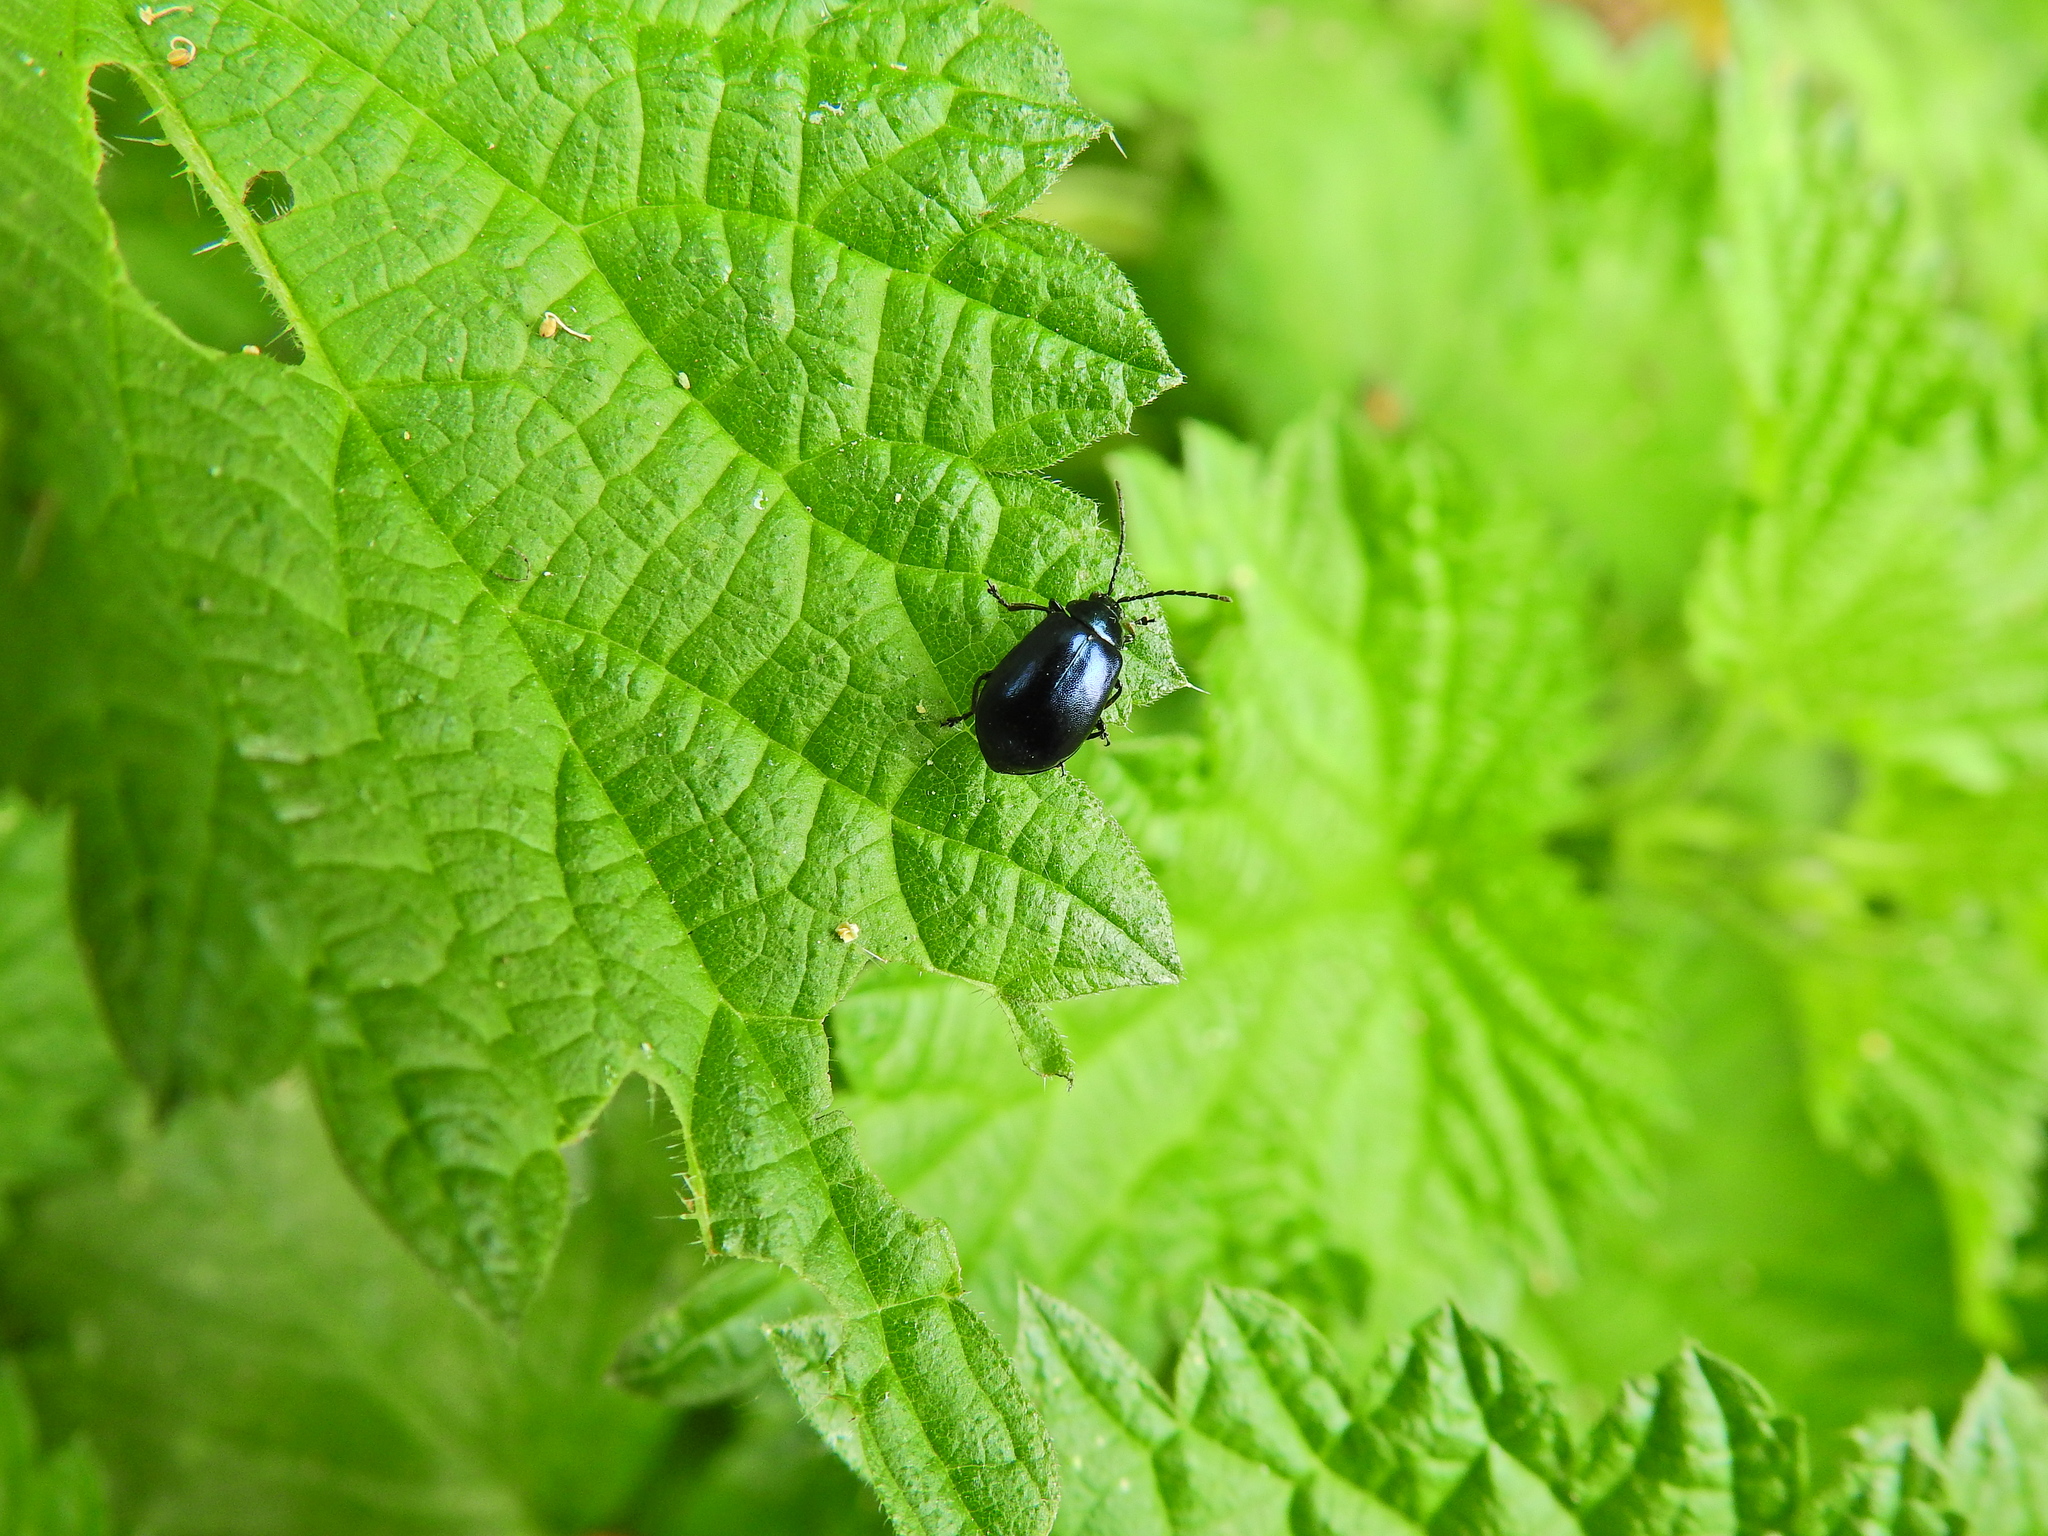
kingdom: Animalia
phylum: Arthropoda
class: Insecta
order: Coleoptera
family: Chrysomelidae
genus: Agelastica
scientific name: Agelastica alni
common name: Alder leaf beetle
